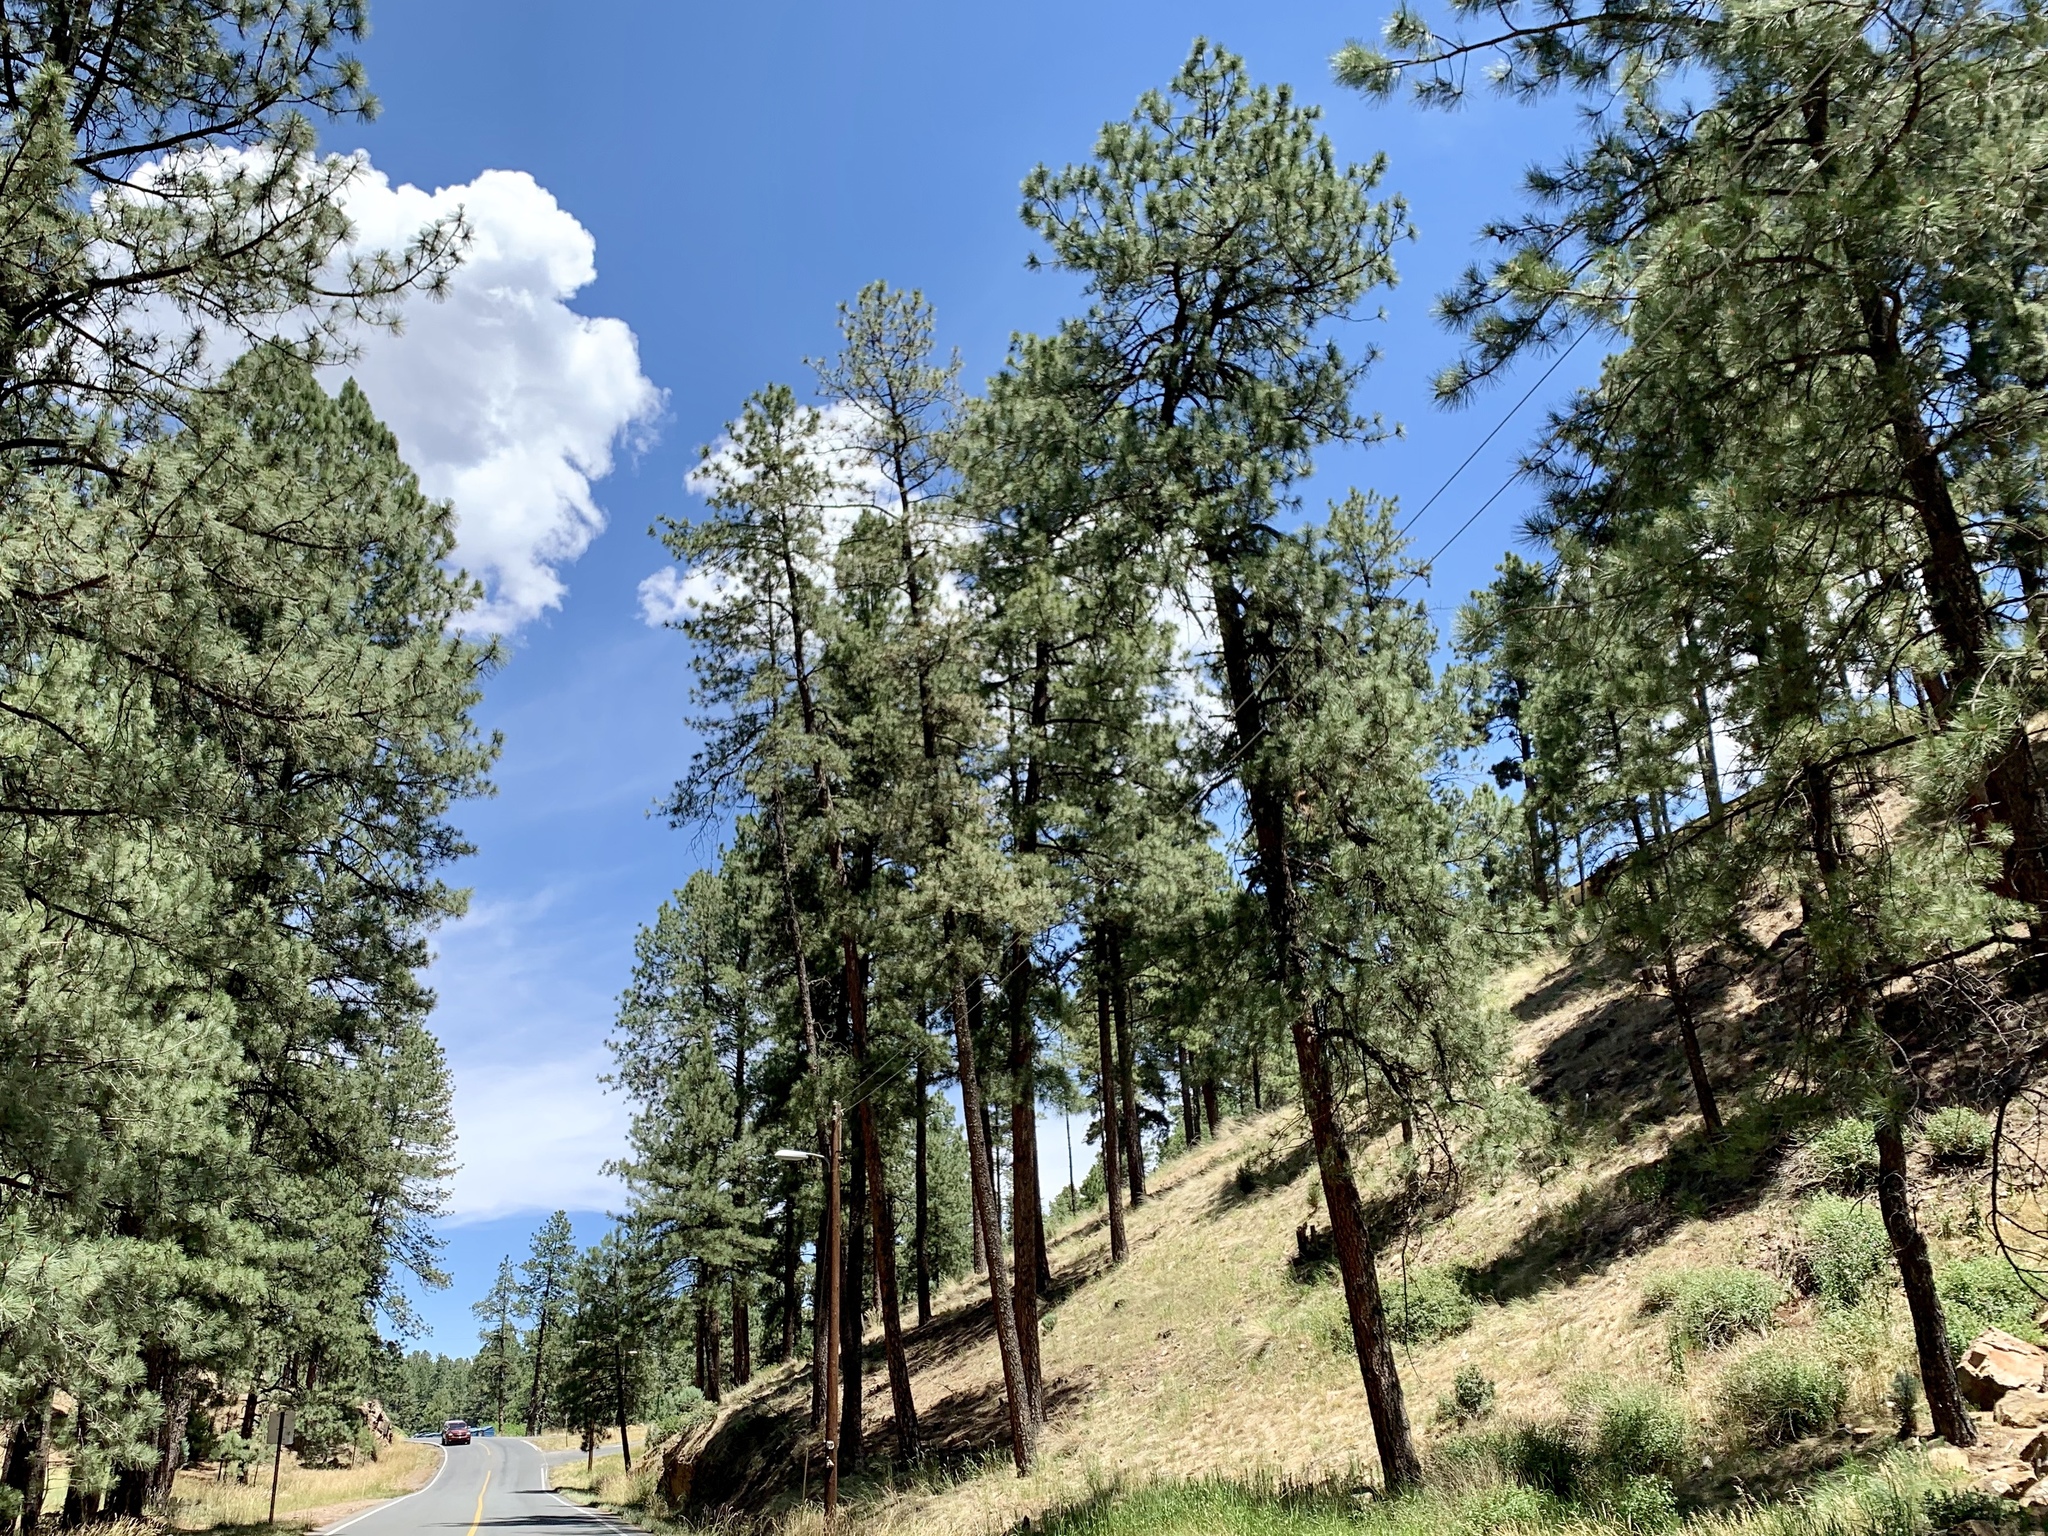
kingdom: Plantae
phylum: Tracheophyta
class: Pinopsida
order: Pinales
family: Pinaceae
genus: Pinus
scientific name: Pinus ponderosa
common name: Western yellow-pine
